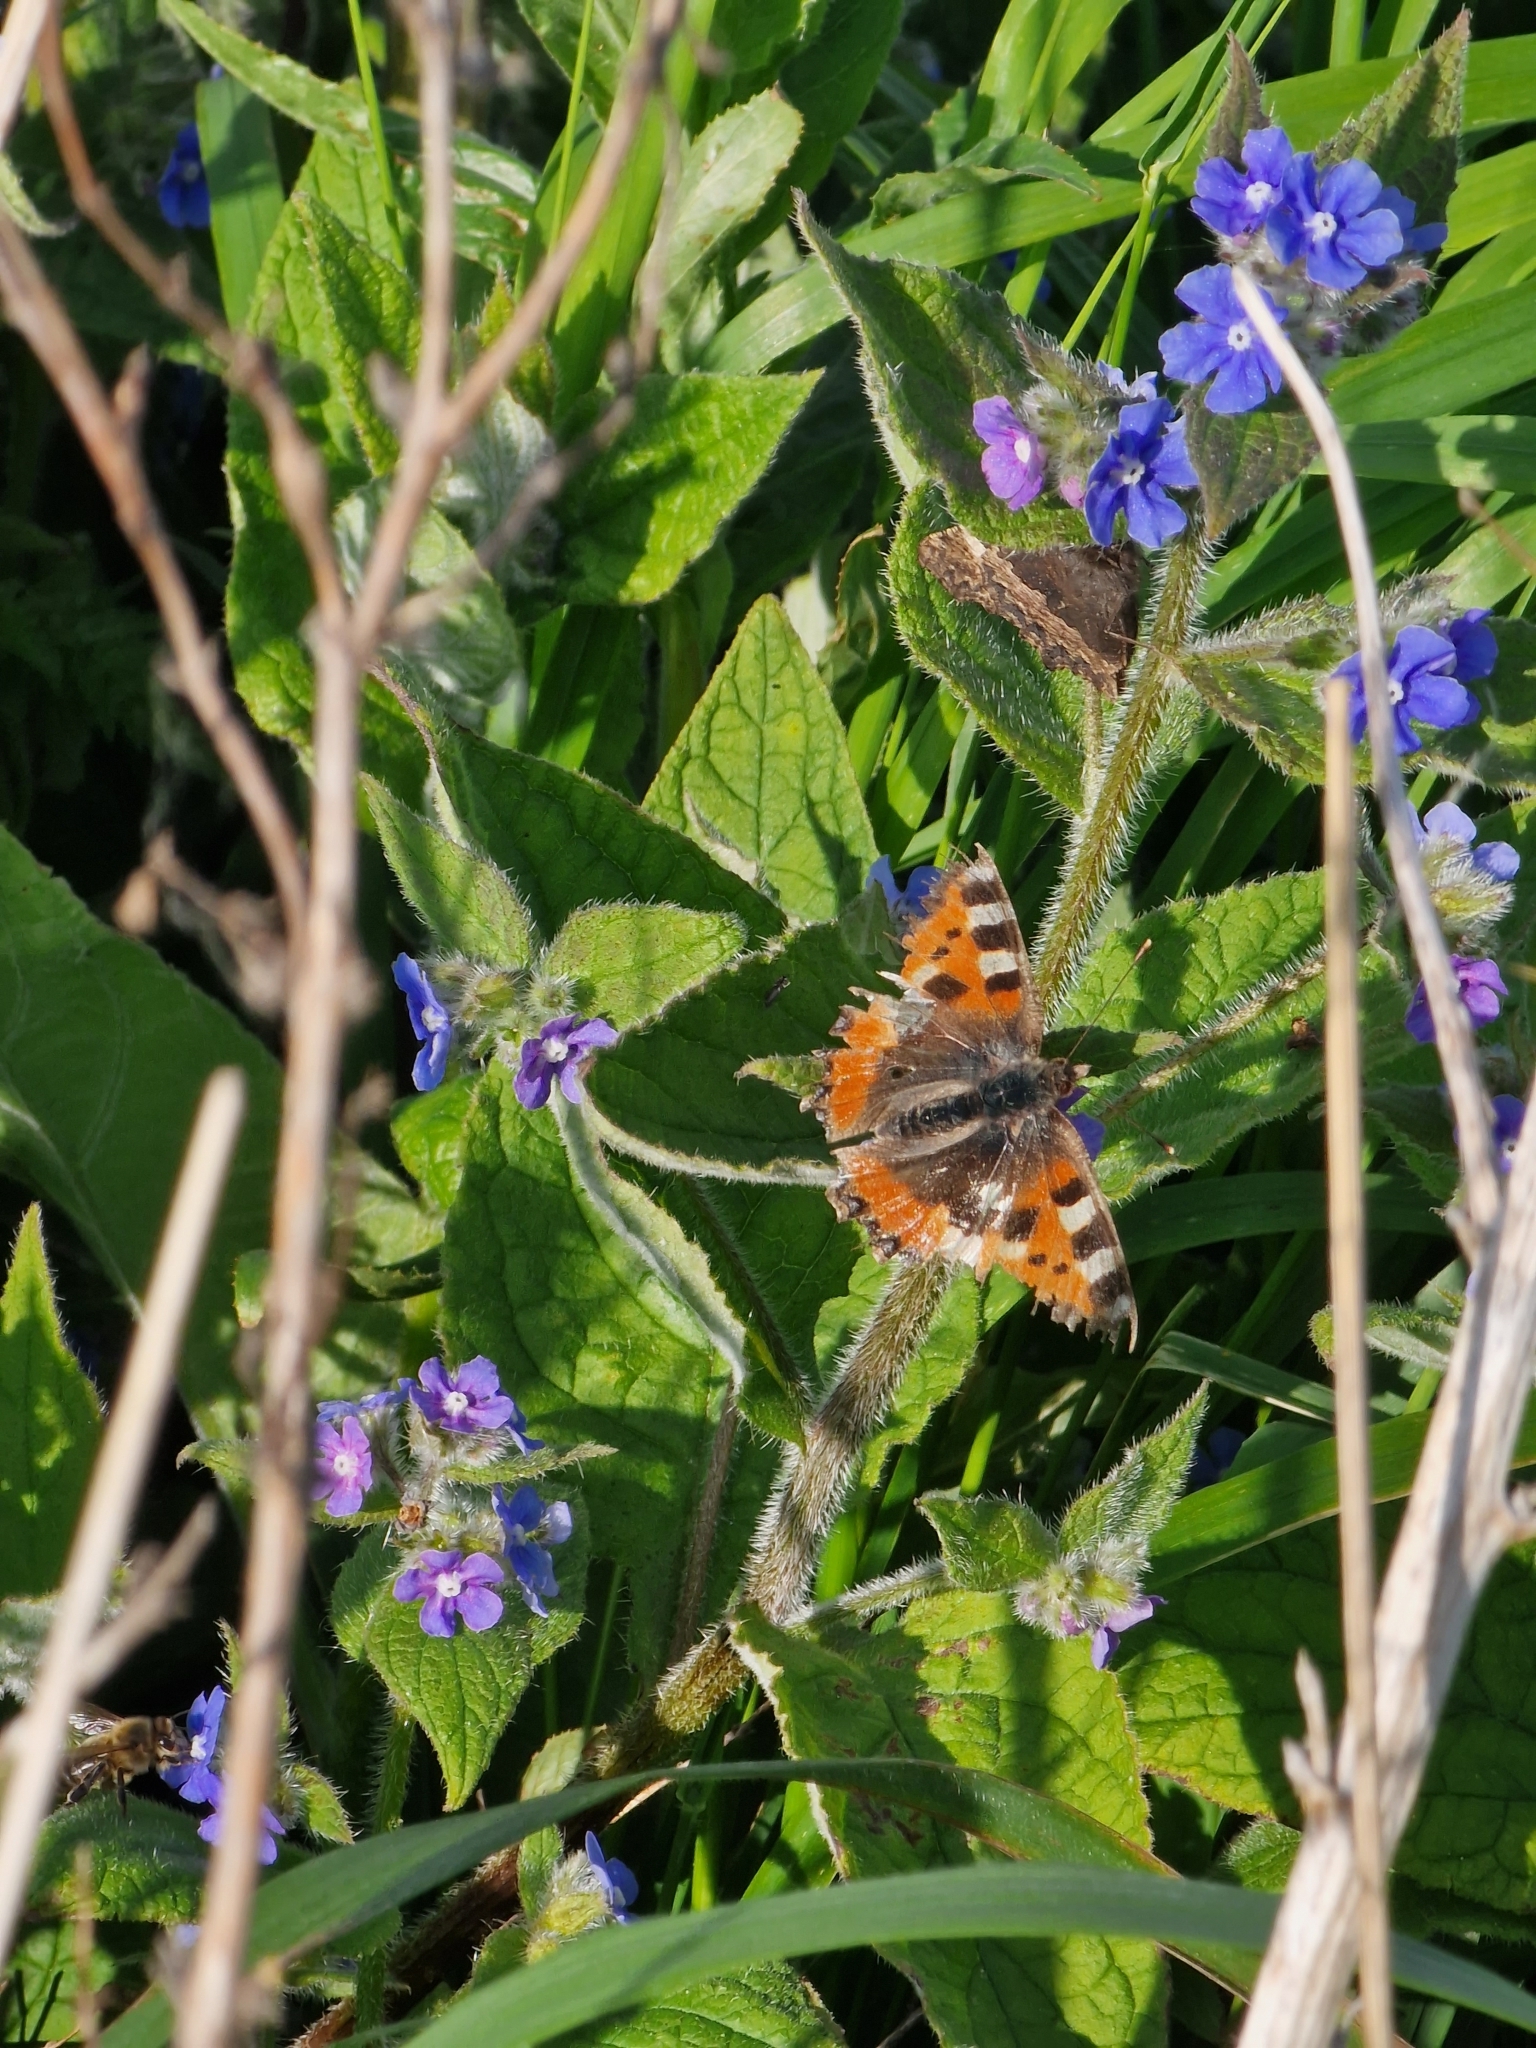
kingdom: Animalia
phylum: Arthropoda
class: Insecta
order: Lepidoptera
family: Nymphalidae
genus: Aglais
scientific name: Aglais urticae
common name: Small tortoiseshell
